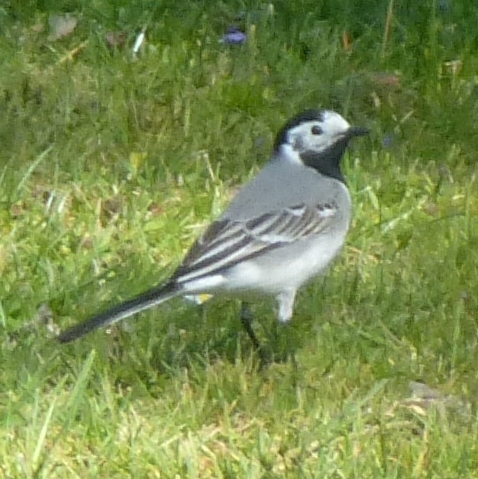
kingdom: Animalia
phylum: Chordata
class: Aves
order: Passeriformes
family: Motacillidae
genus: Motacilla
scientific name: Motacilla alba
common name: White wagtail
